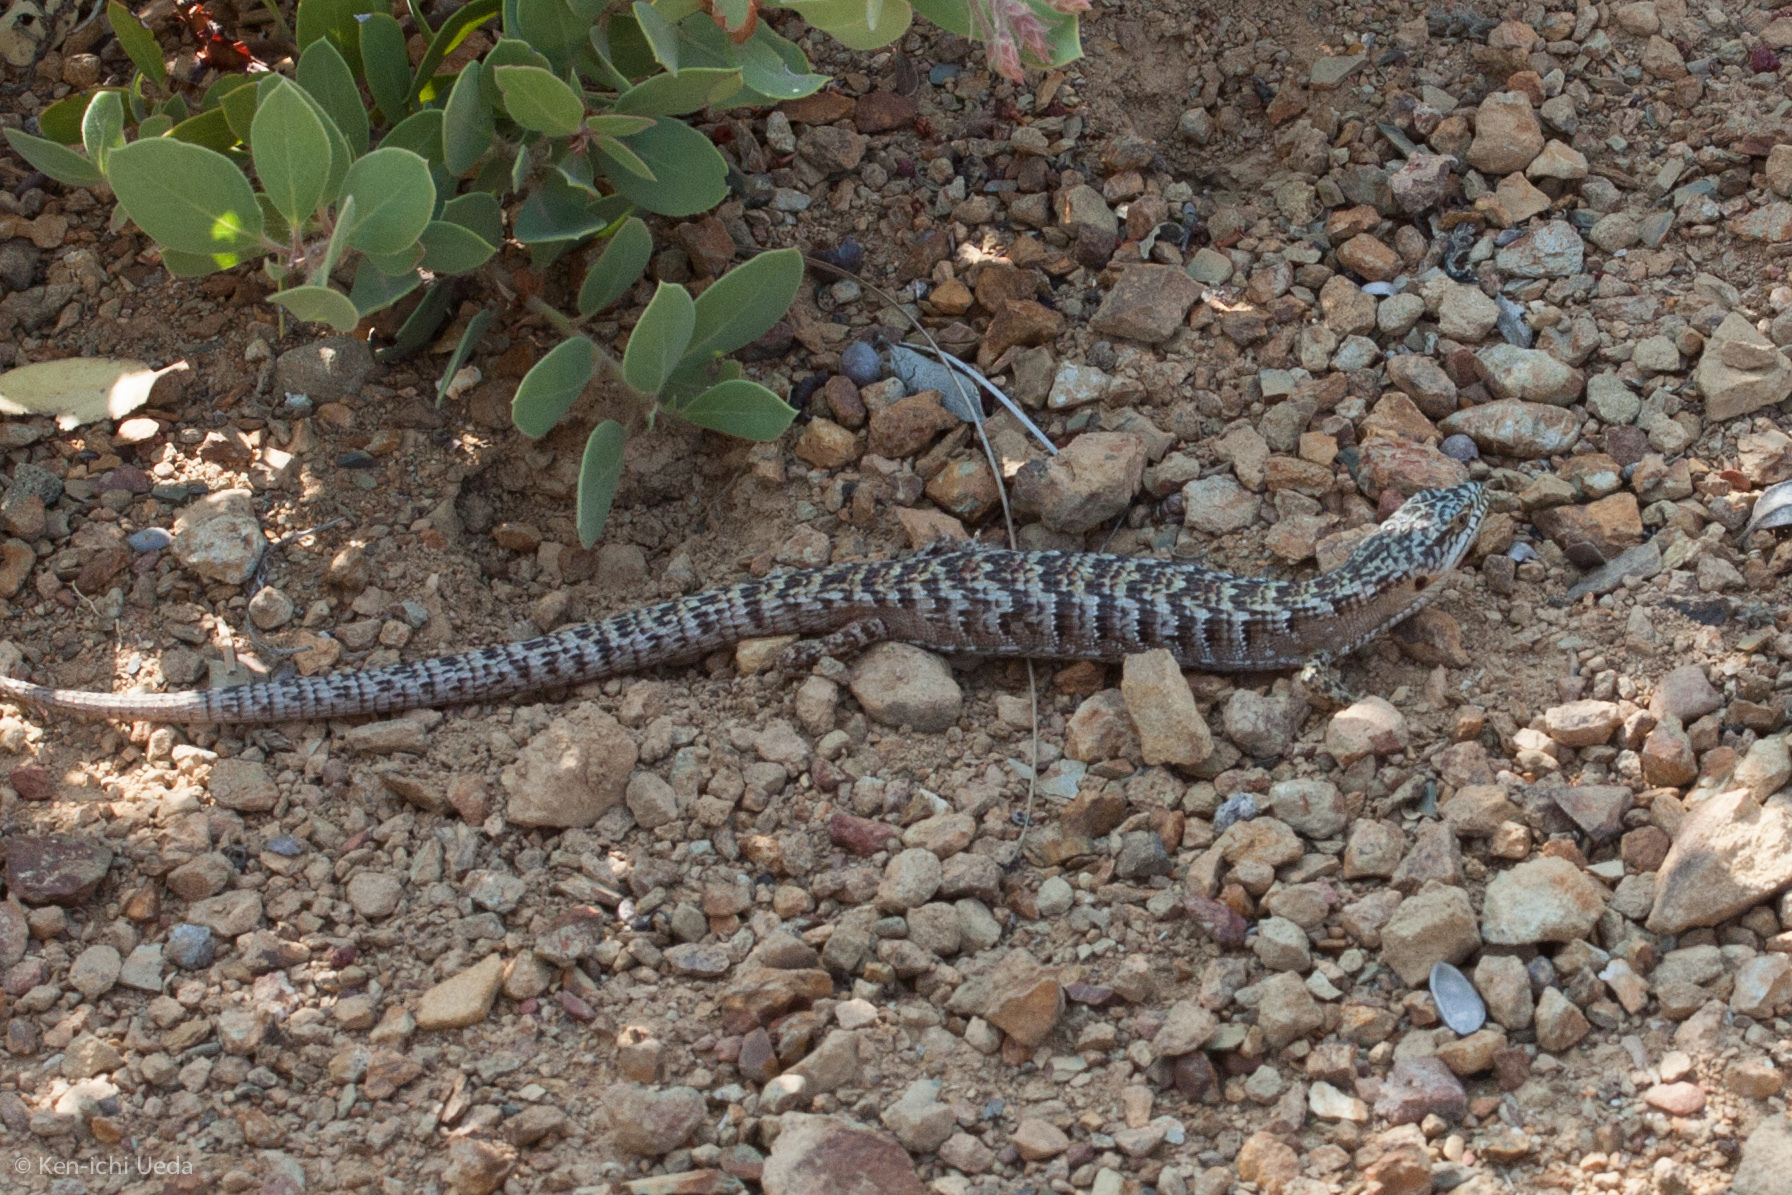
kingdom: Animalia
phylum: Chordata
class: Squamata
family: Anguidae
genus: Elgaria
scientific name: Elgaria multicarinata
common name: Southern alligator lizard
